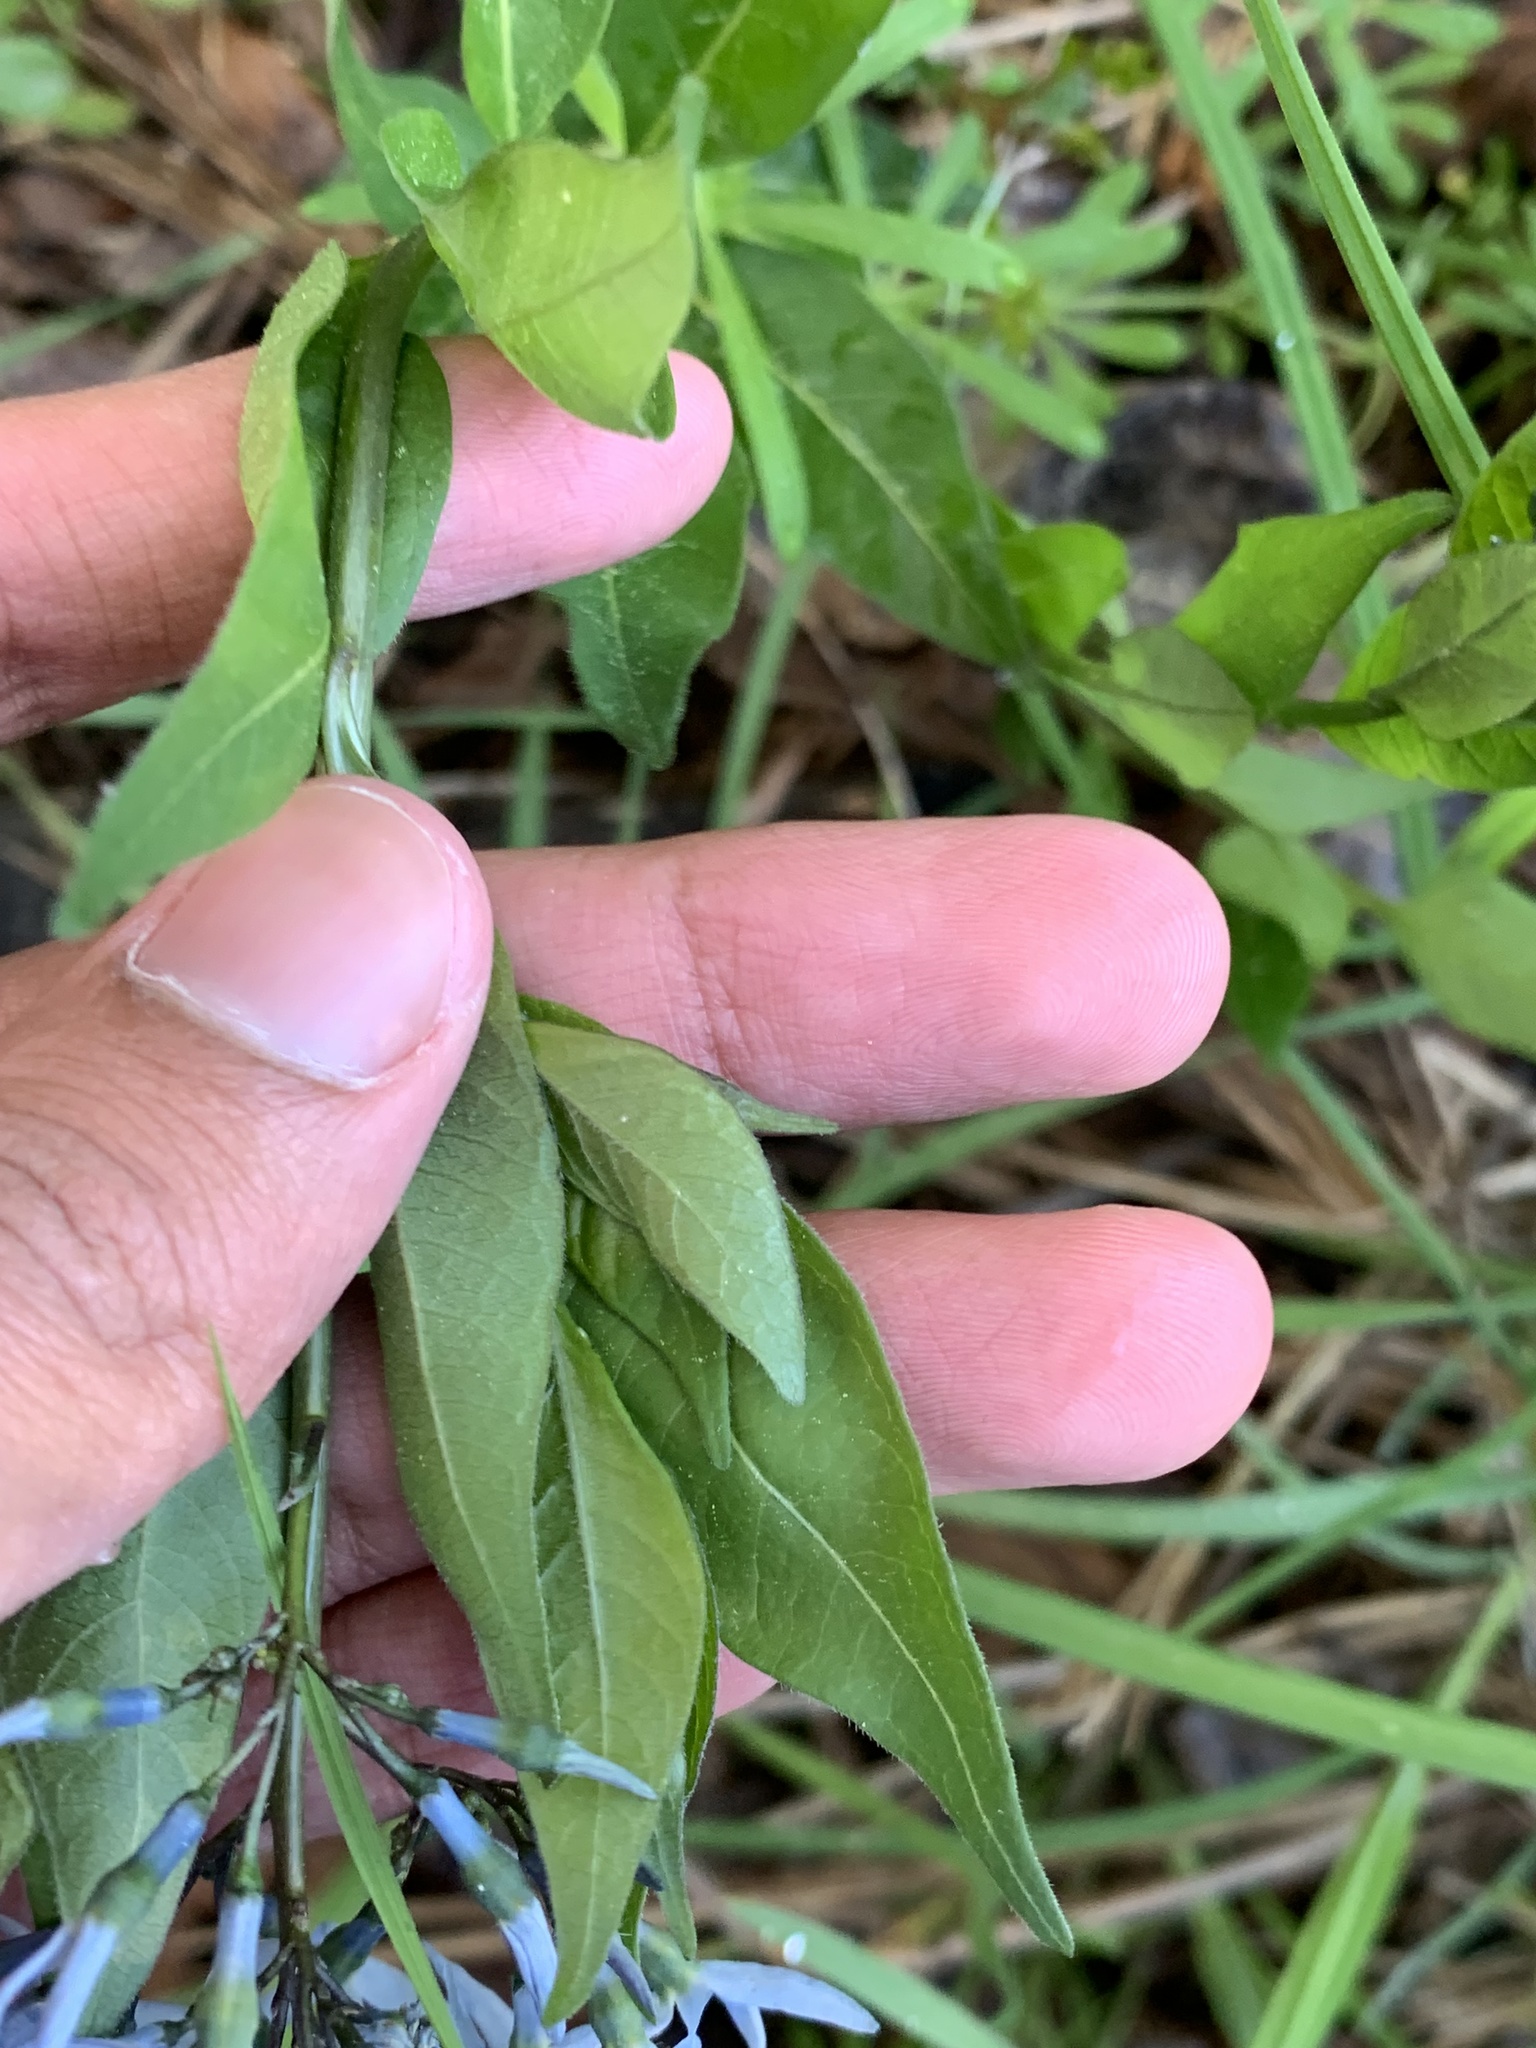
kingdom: Plantae
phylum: Tracheophyta
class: Magnoliopsida
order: Gentianales
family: Apocynaceae
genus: Amsonia
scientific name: Amsonia tabernaemontana
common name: Texas-star
